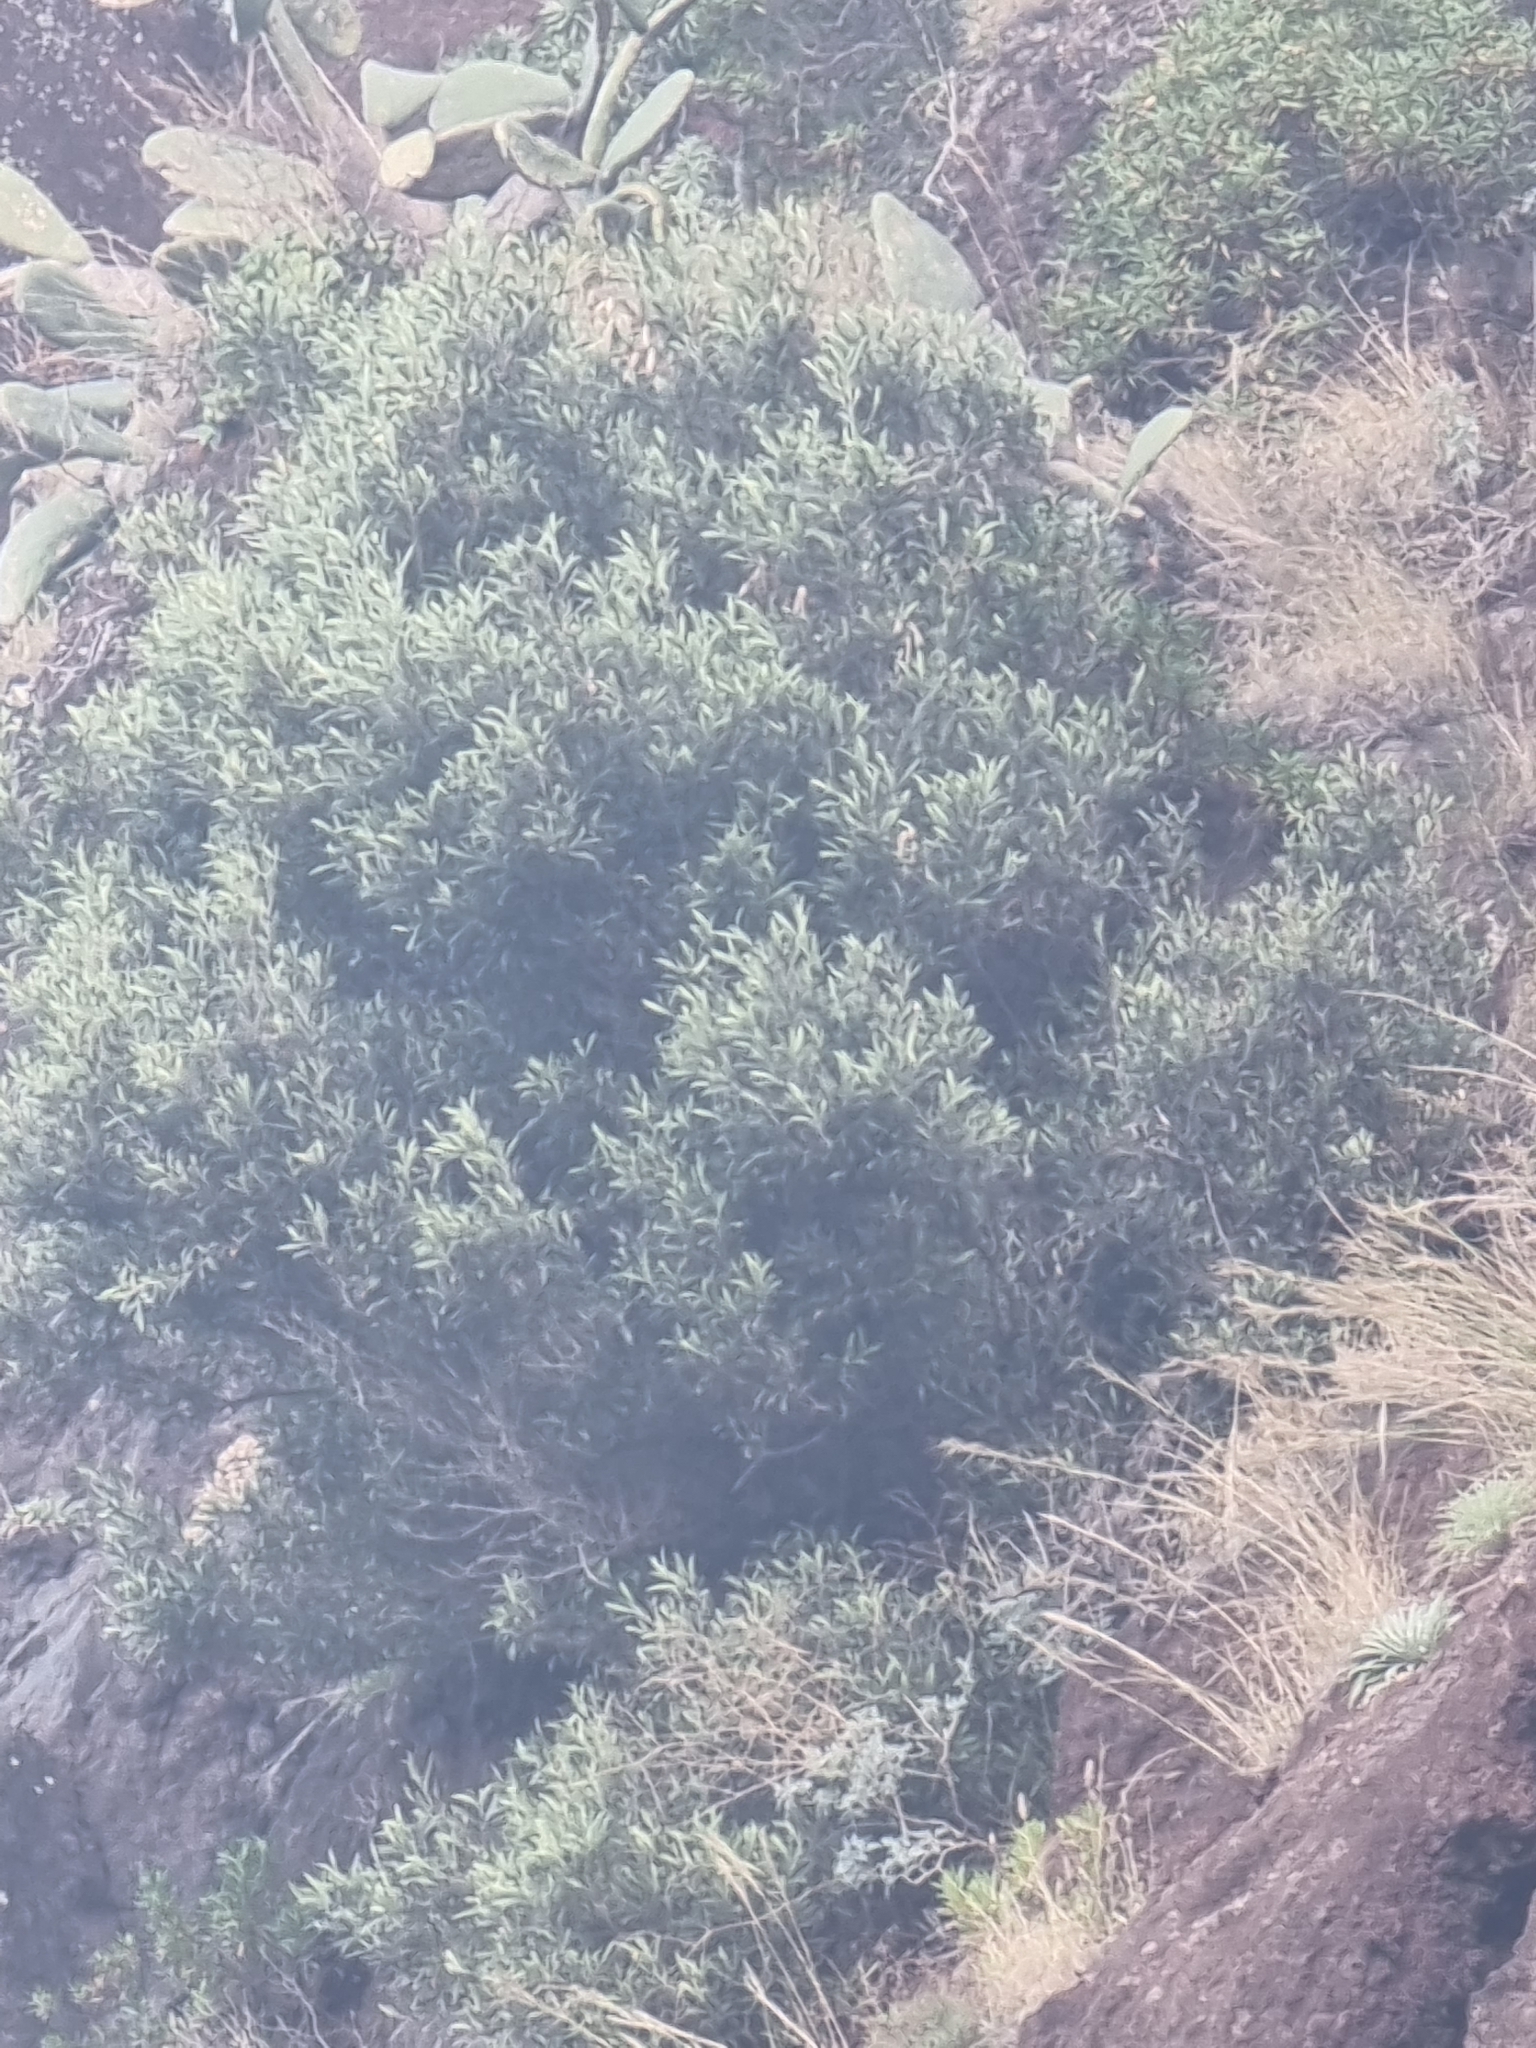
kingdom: Plantae
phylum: Tracheophyta
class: Magnoliopsida
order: Lamiales
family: Oleaceae
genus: Olea
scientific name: Olea europaea
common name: Olive
